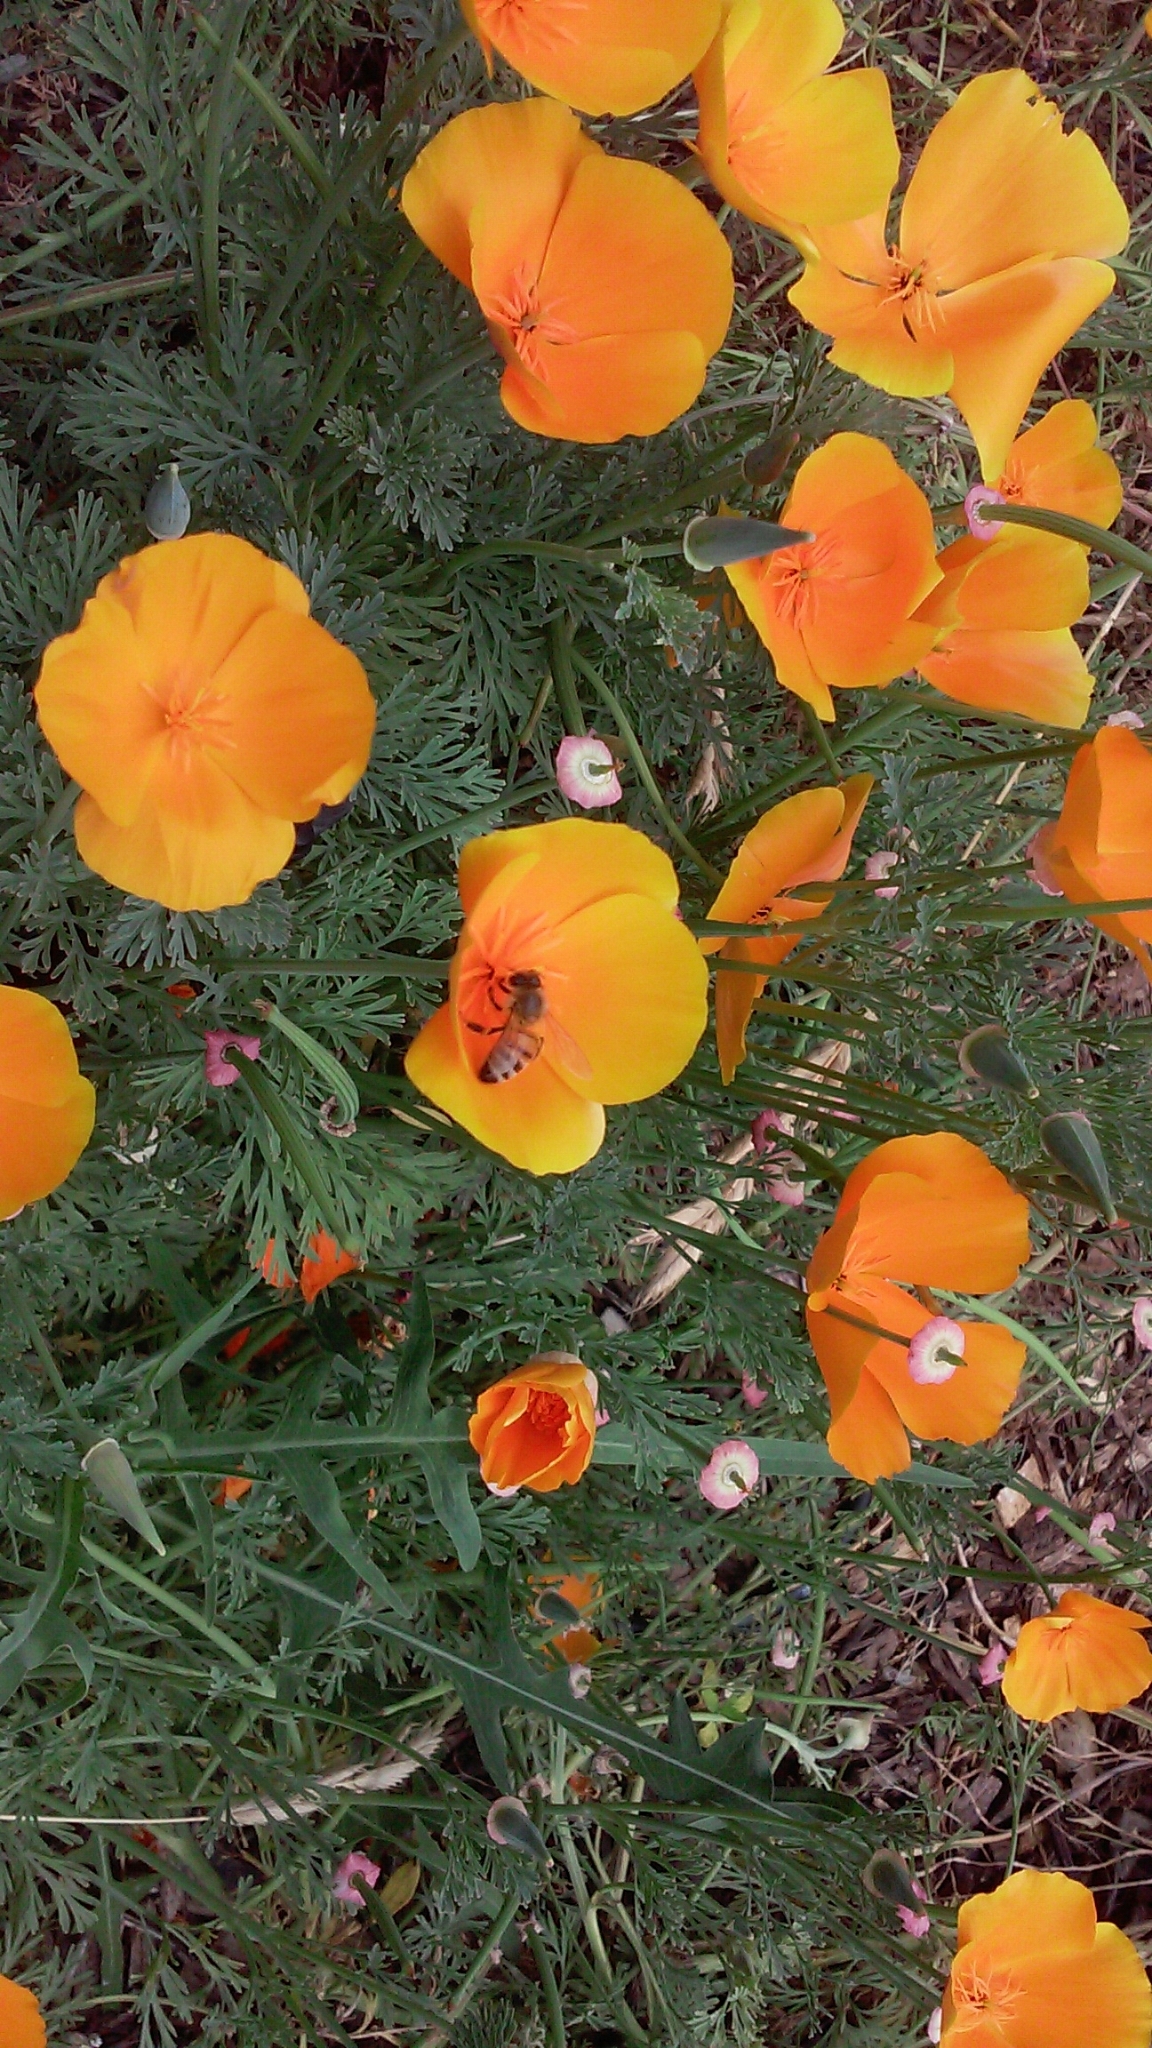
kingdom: Animalia
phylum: Arthropoda
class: Insecta
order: Hymenoptera
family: Apidae
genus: Apis
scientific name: Apis mellifera
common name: Honey bee
